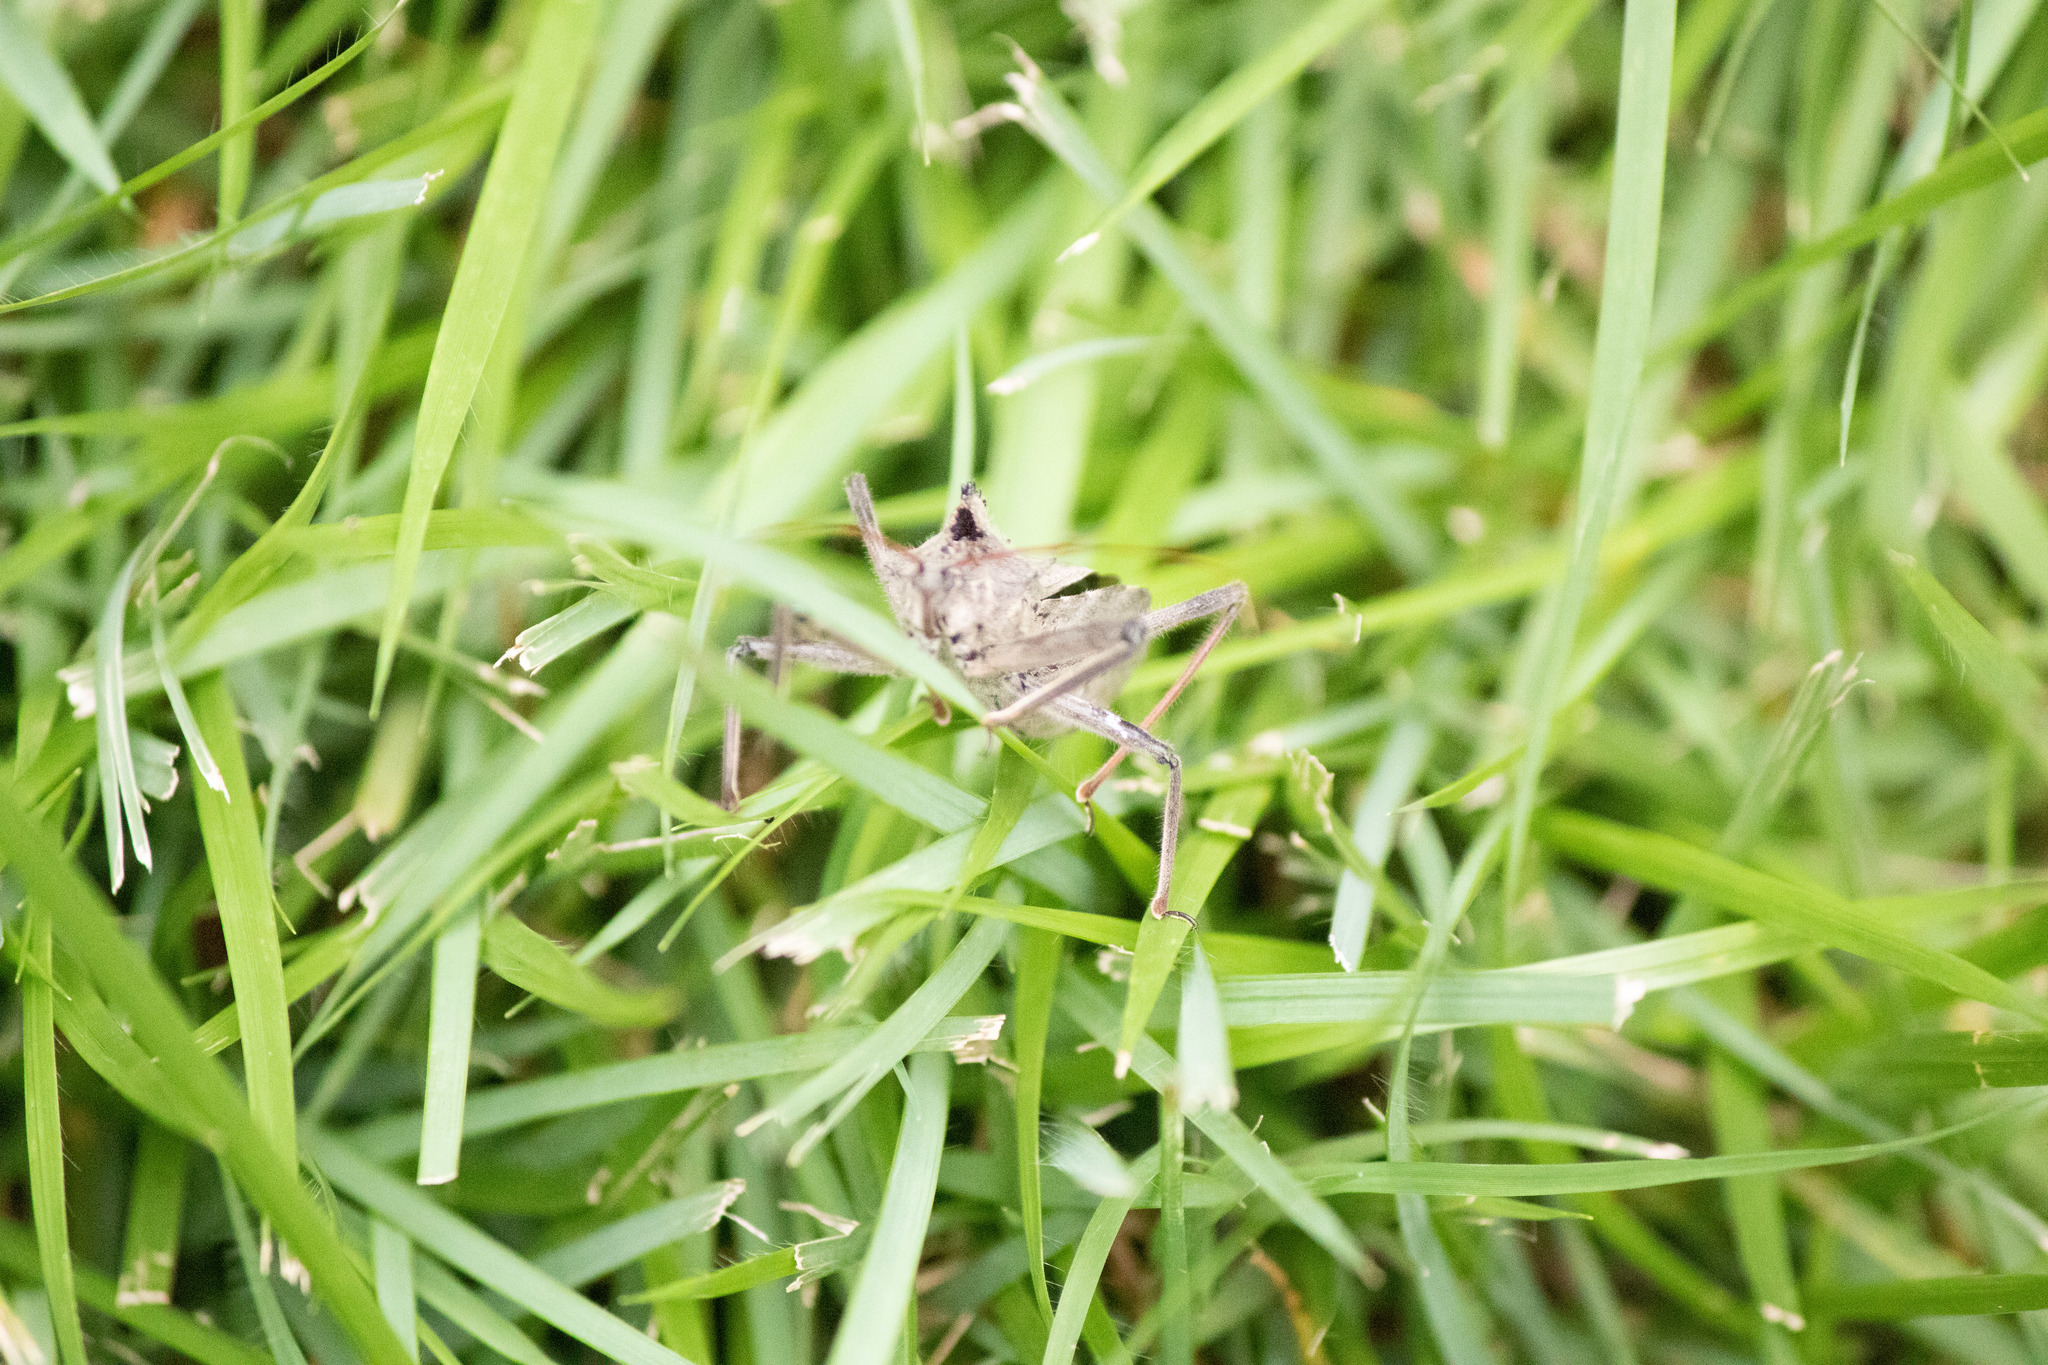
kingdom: Animalia
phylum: Arthropoda
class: Insecta
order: Hemiptera
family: Reduviidae
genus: Arilus
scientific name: Arilus cristatus
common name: North american wheel bug
